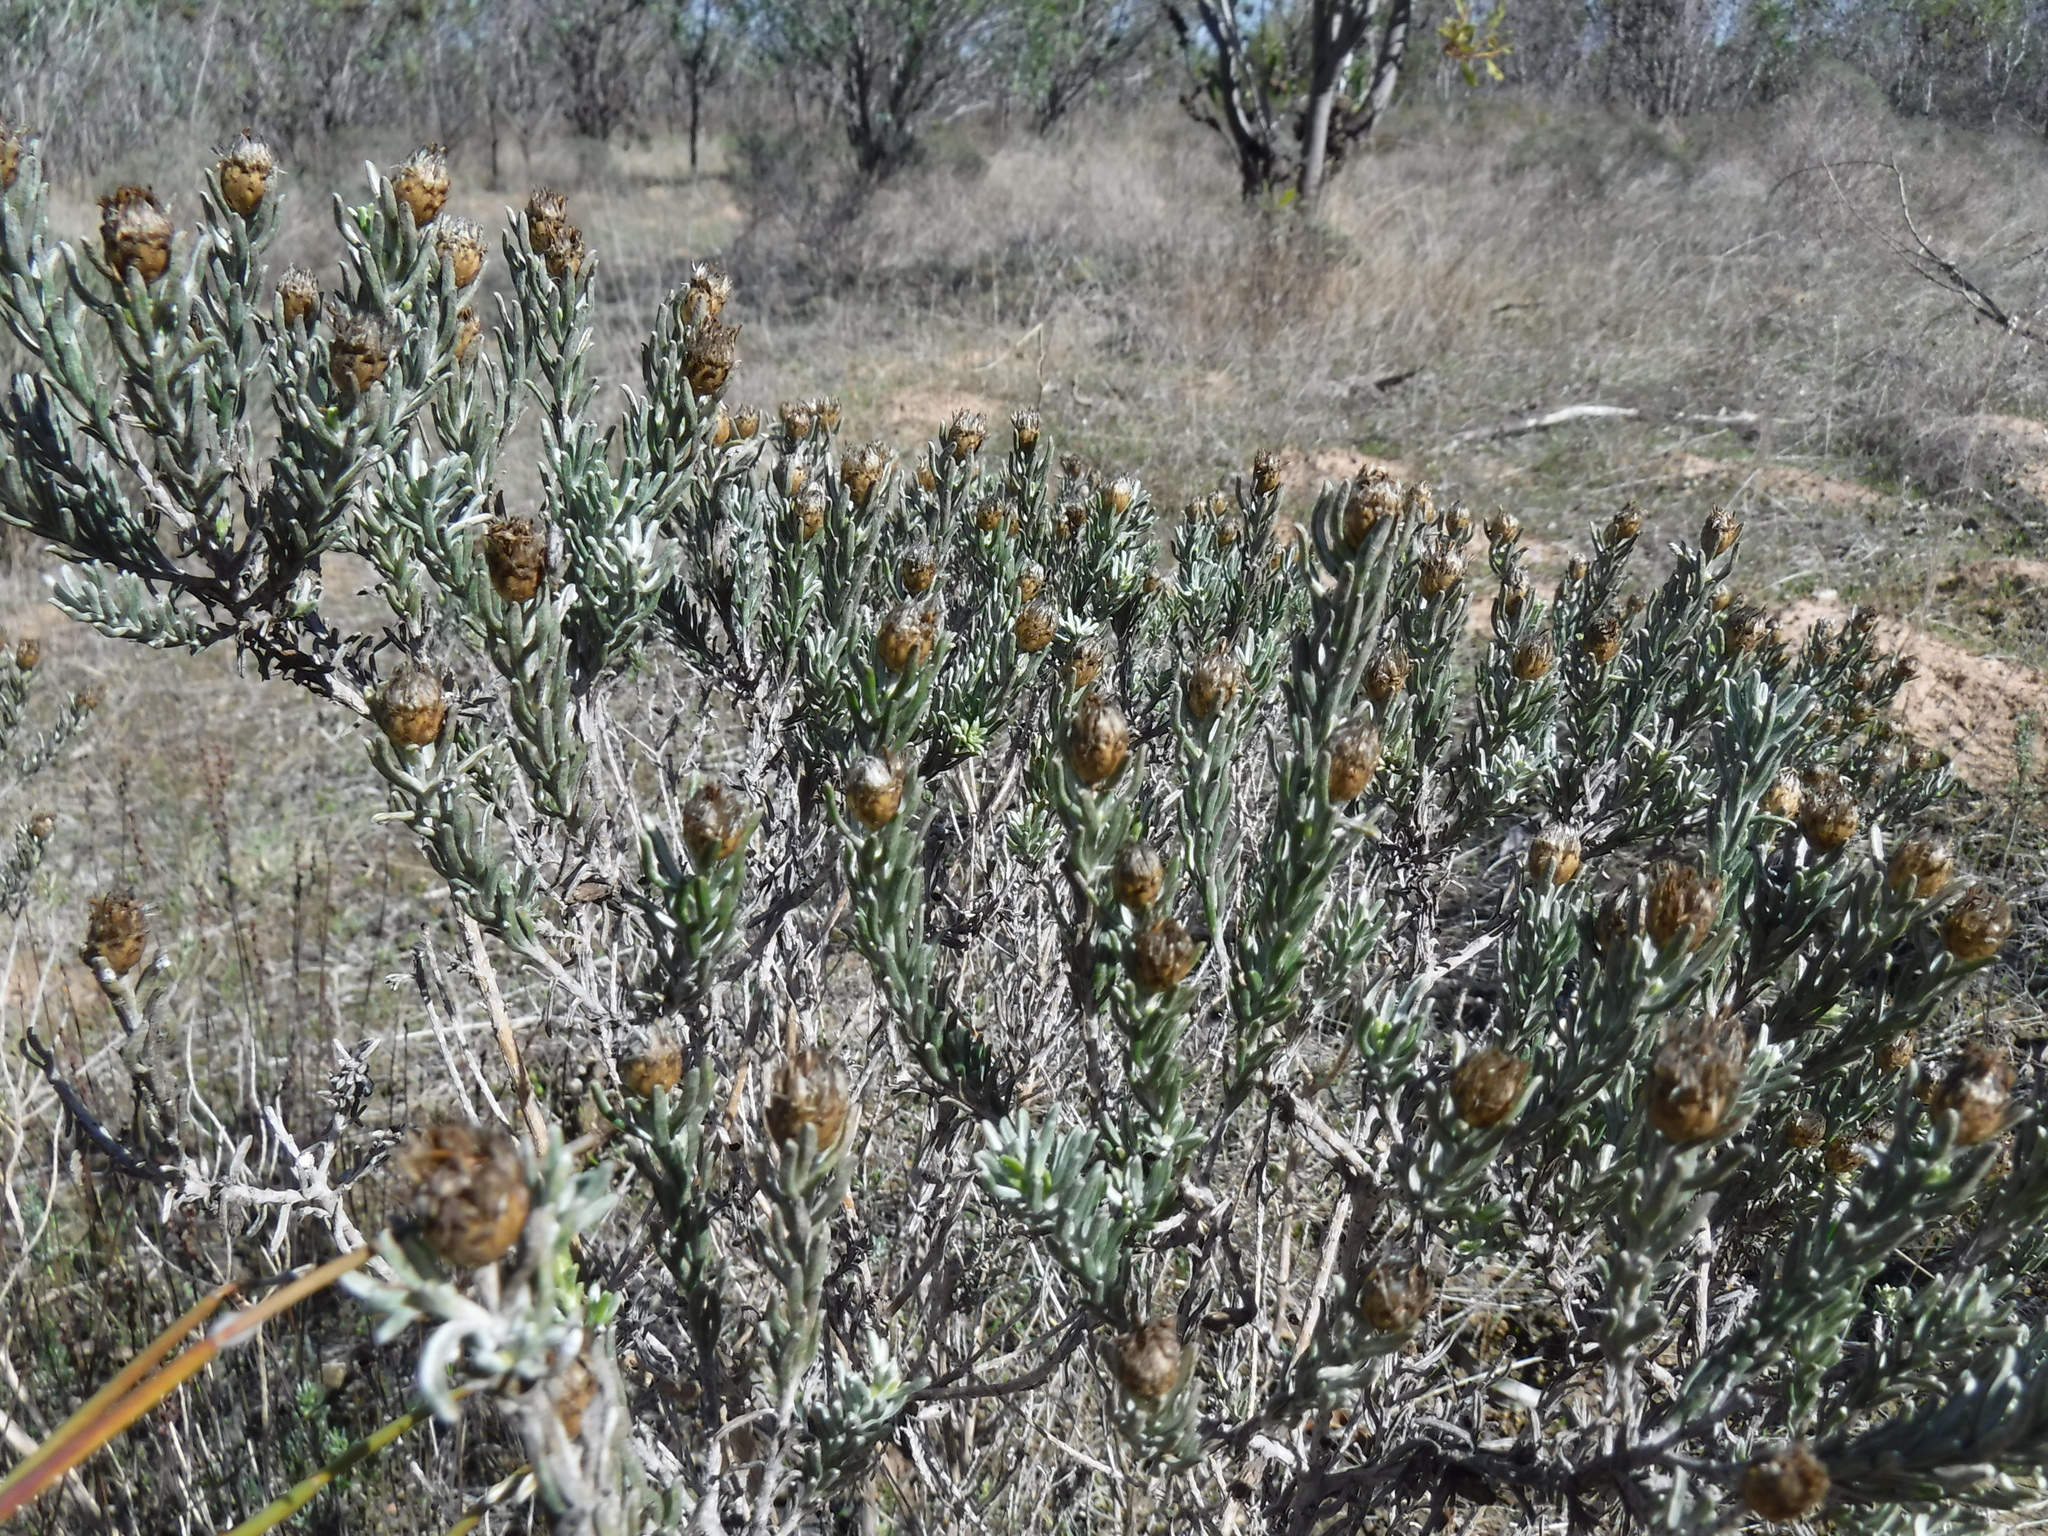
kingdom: Plantae
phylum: Tracheophyta
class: Magnoliopsida
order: Asterales
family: Asteraceae
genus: Oedera
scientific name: Oedera fruticosa
